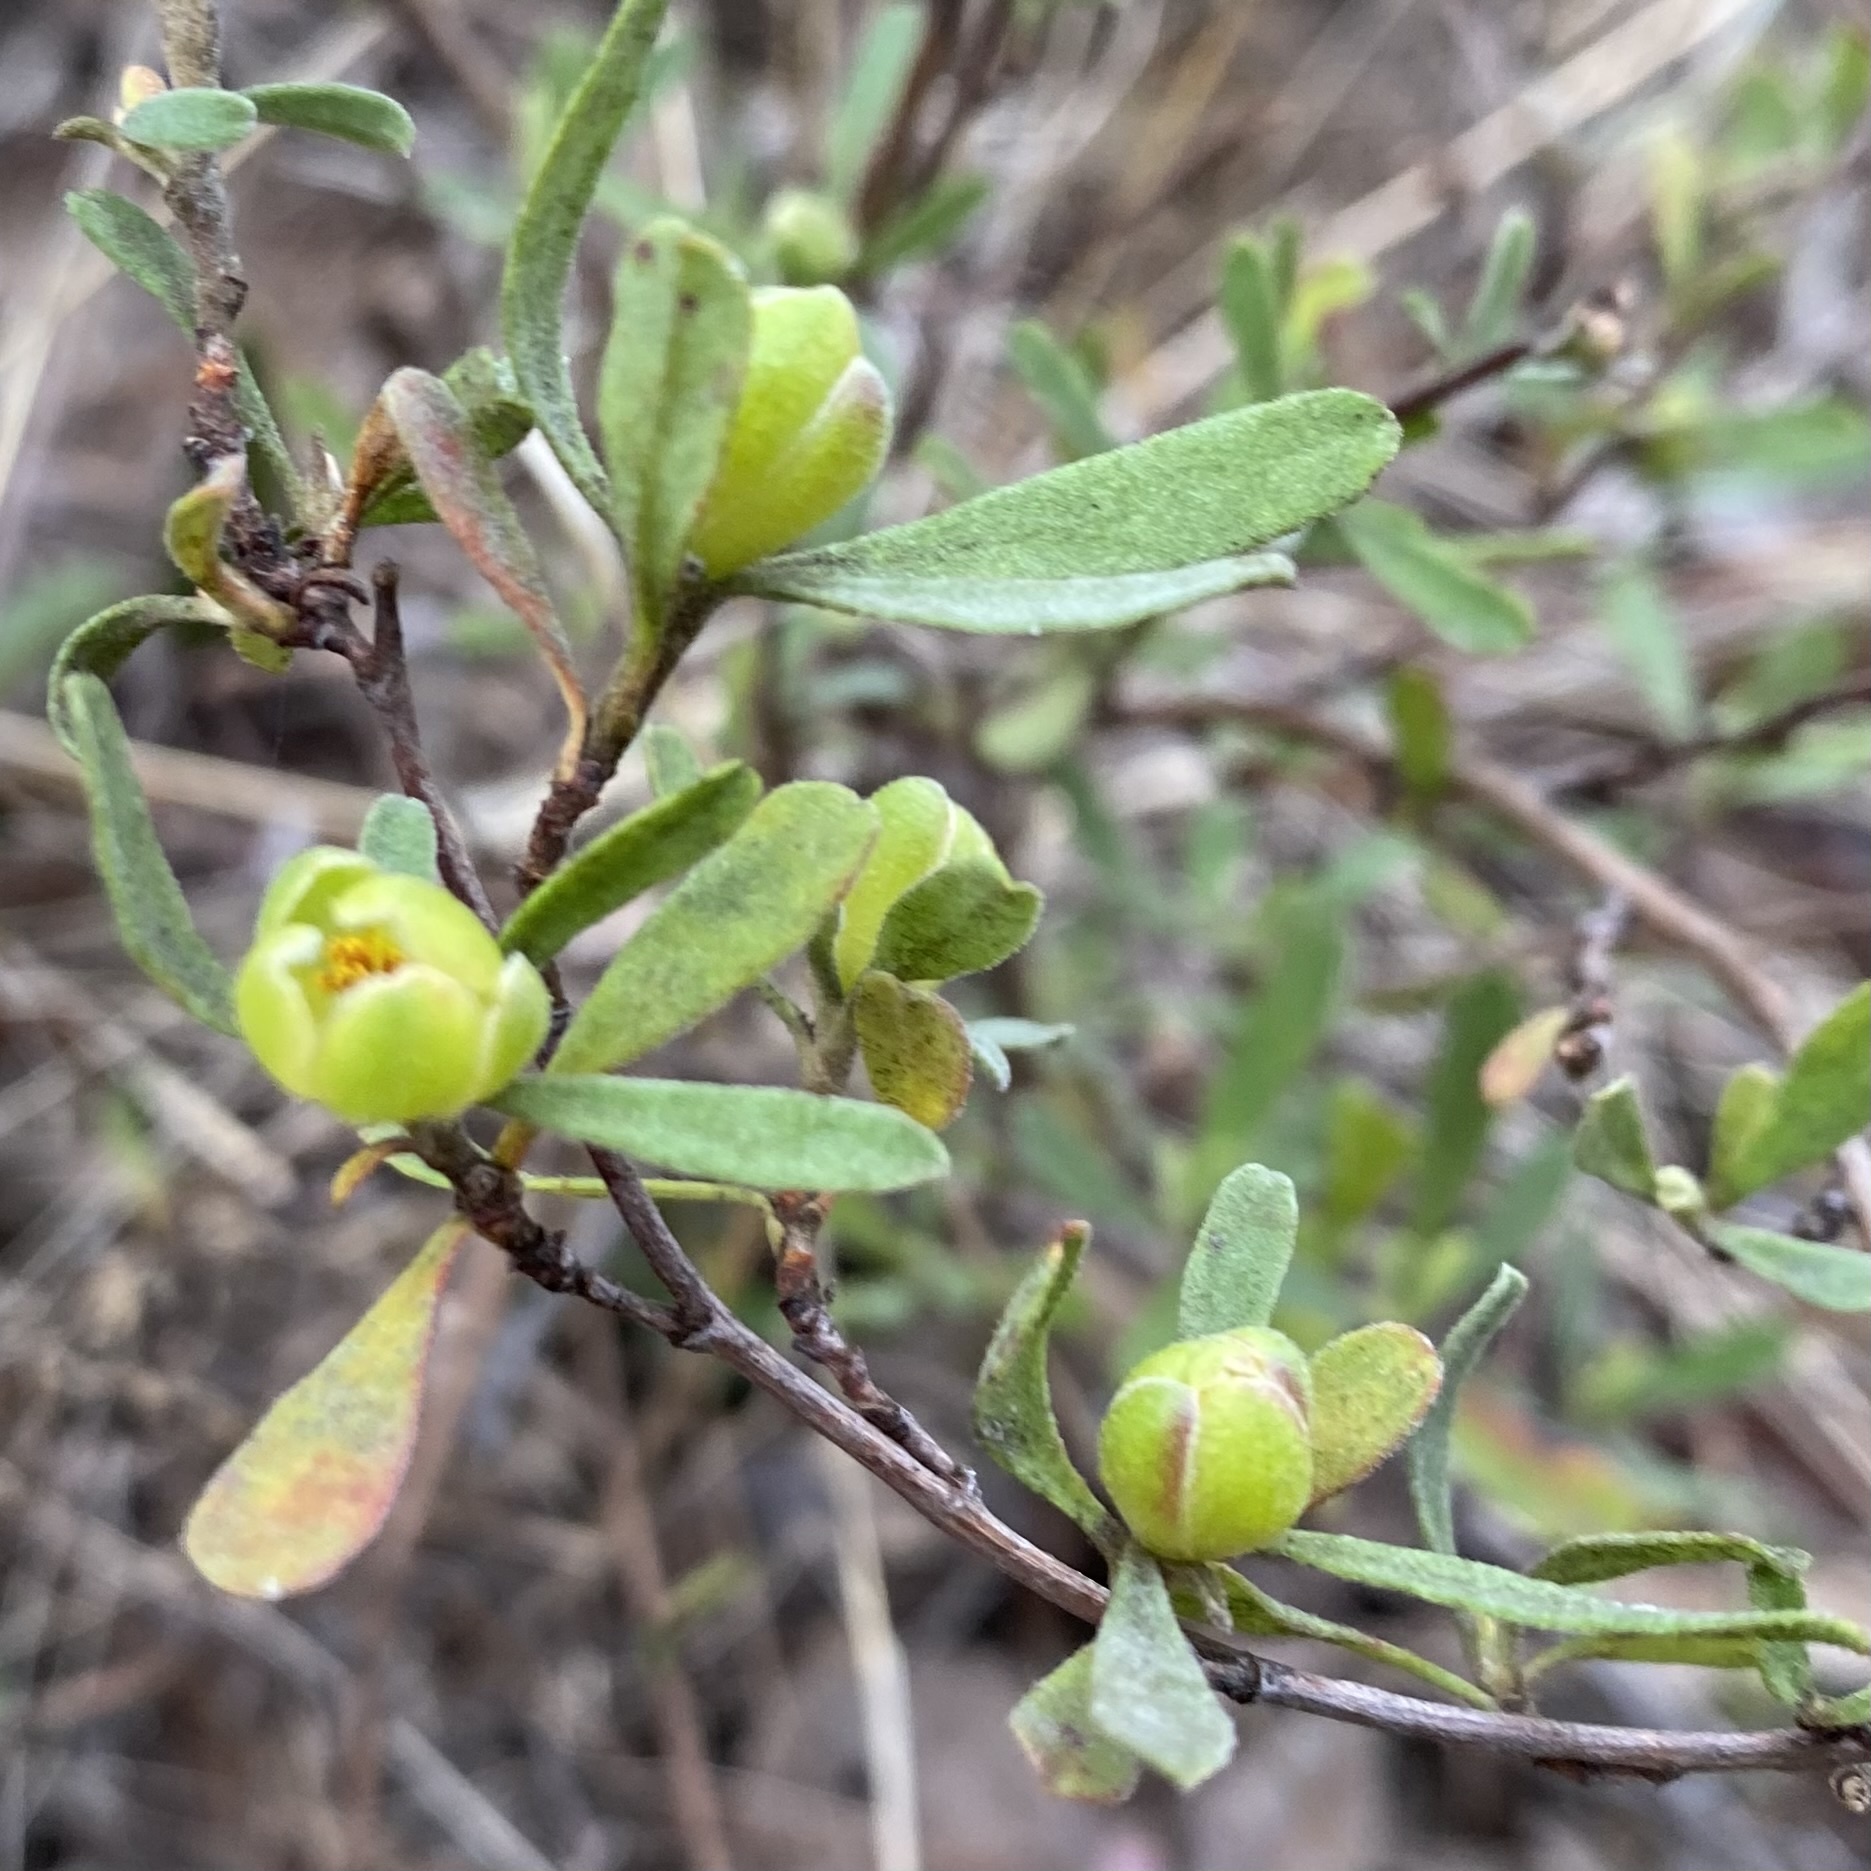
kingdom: Plantae
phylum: Tracheophyta
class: Magnoliopsida
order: Dilleniales
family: Dilleniaceae
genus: Hibbertia
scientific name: Hibbertia obtusifolia
